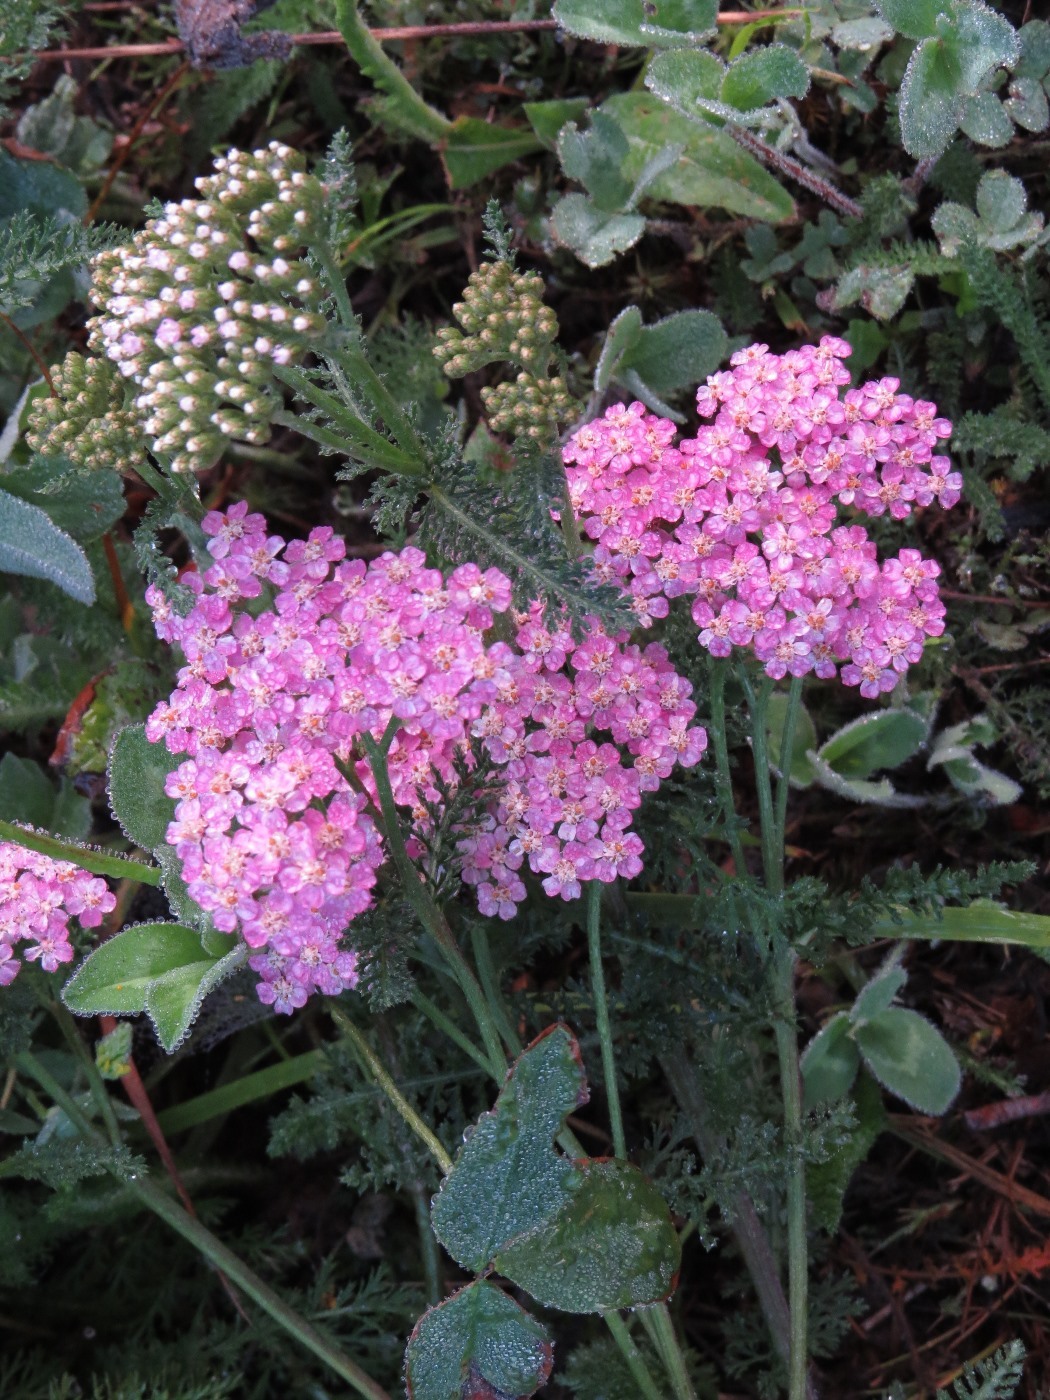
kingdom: Plantae
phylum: Tracheophyta
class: Magnoliopsida
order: Asterales
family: Asteraceae
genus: Achillea
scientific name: Achillea millefolium
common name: Yarrow
